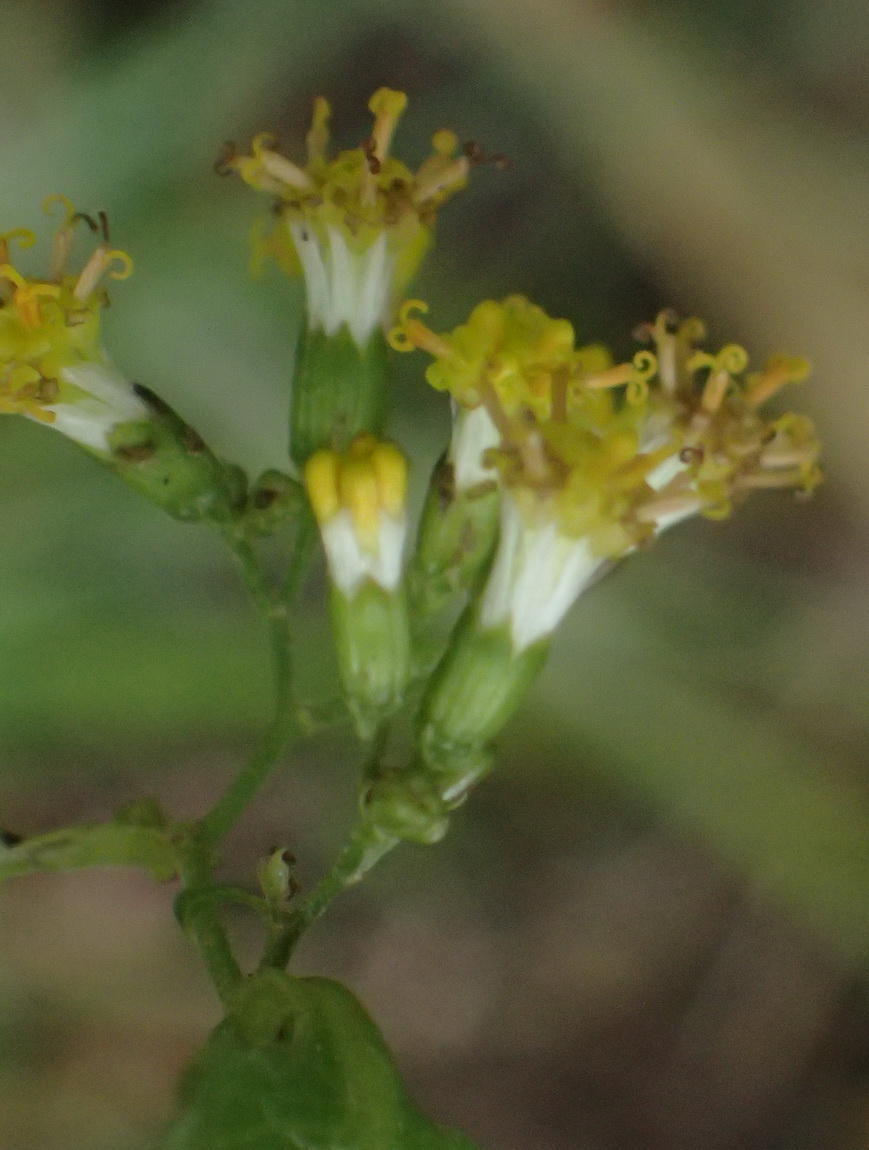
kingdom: Plantae
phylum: Tracheophyta
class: Magnoliopsida
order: Asterales
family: Asteraceae
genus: Senecio
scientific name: Senecio deltoideus
